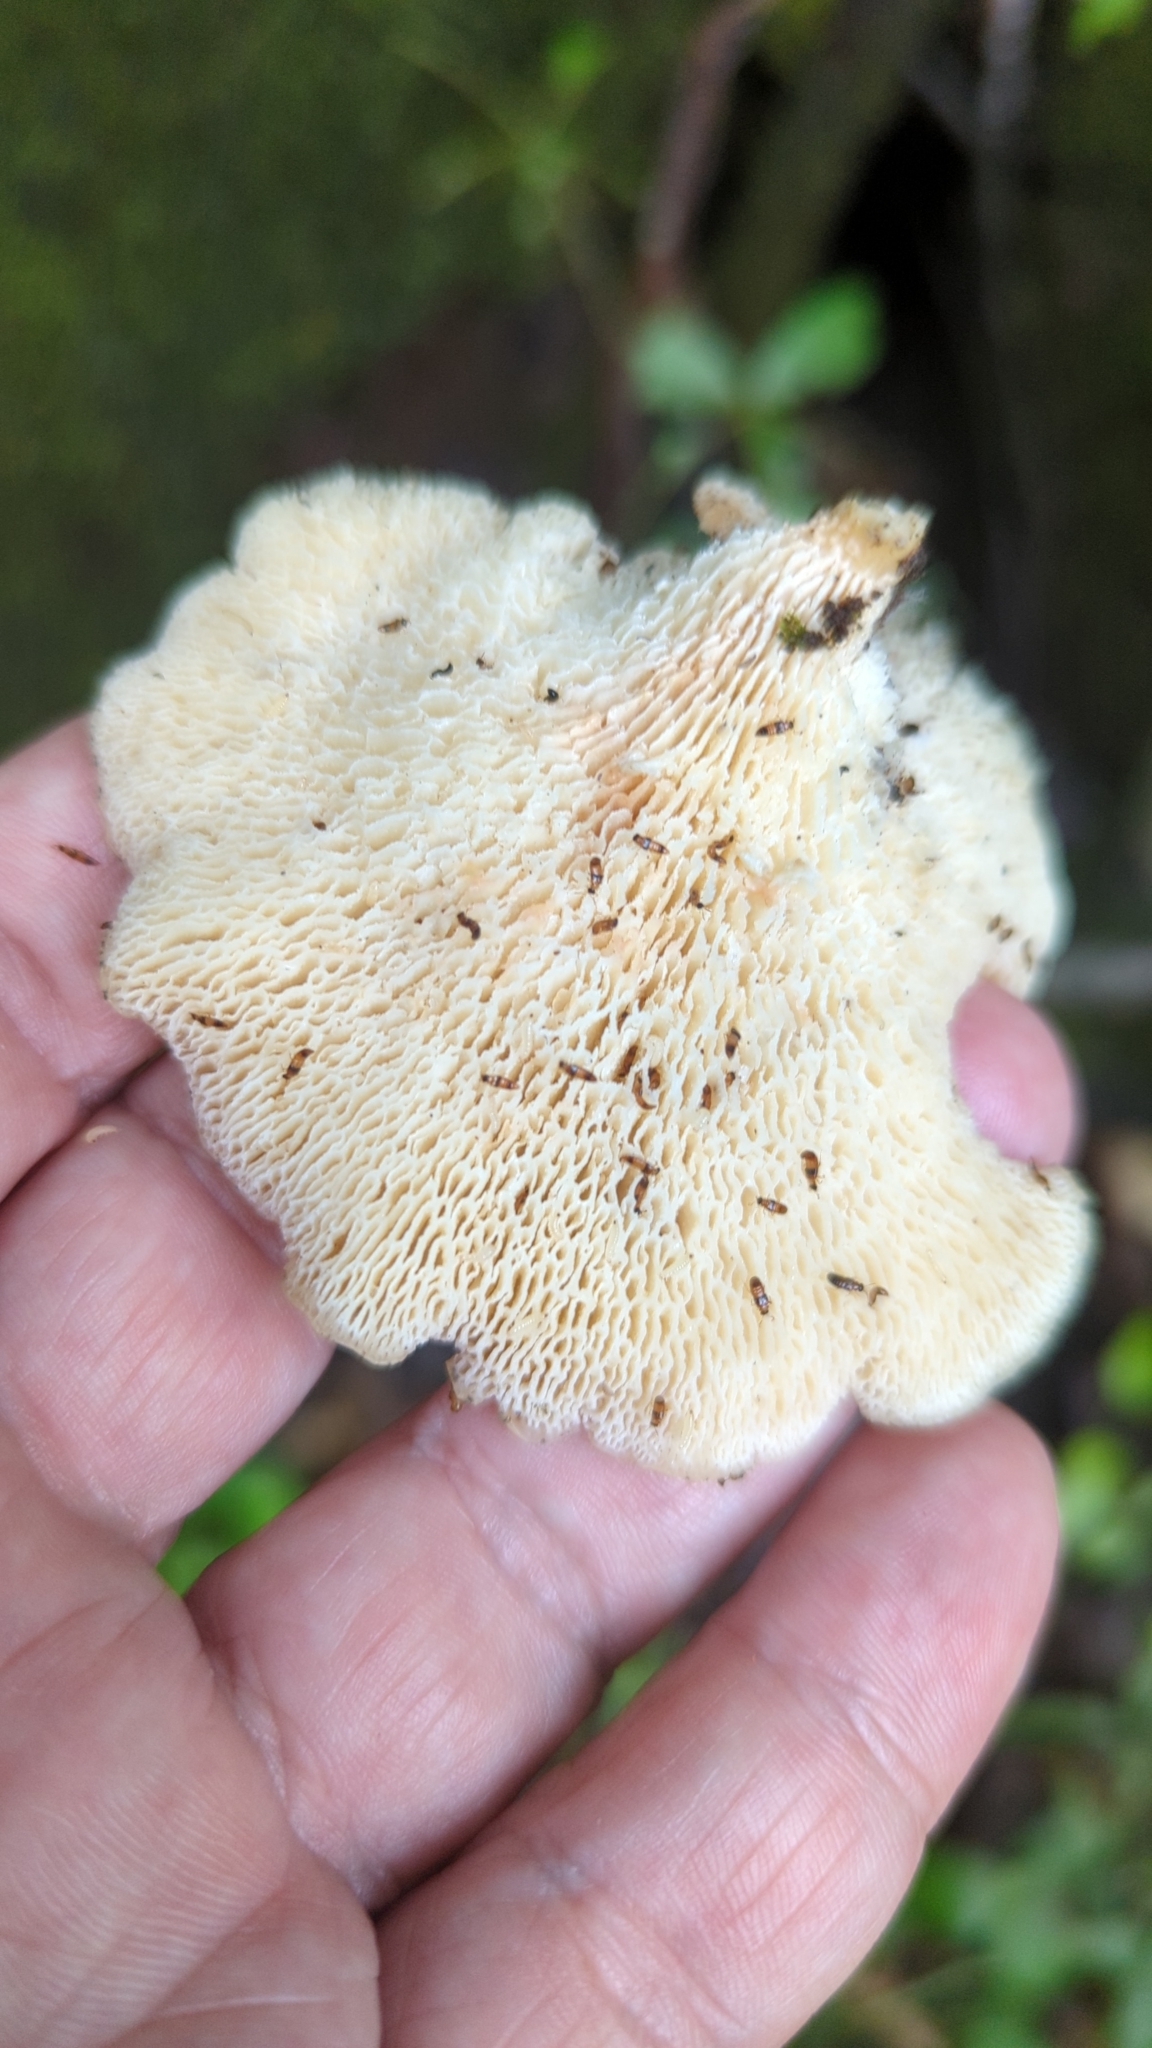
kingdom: Fungi
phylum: Basidiomycota
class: Agaricomycetes
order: Polyporales
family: Polyporaceae
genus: Favolus
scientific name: Favolus tenuiculus
